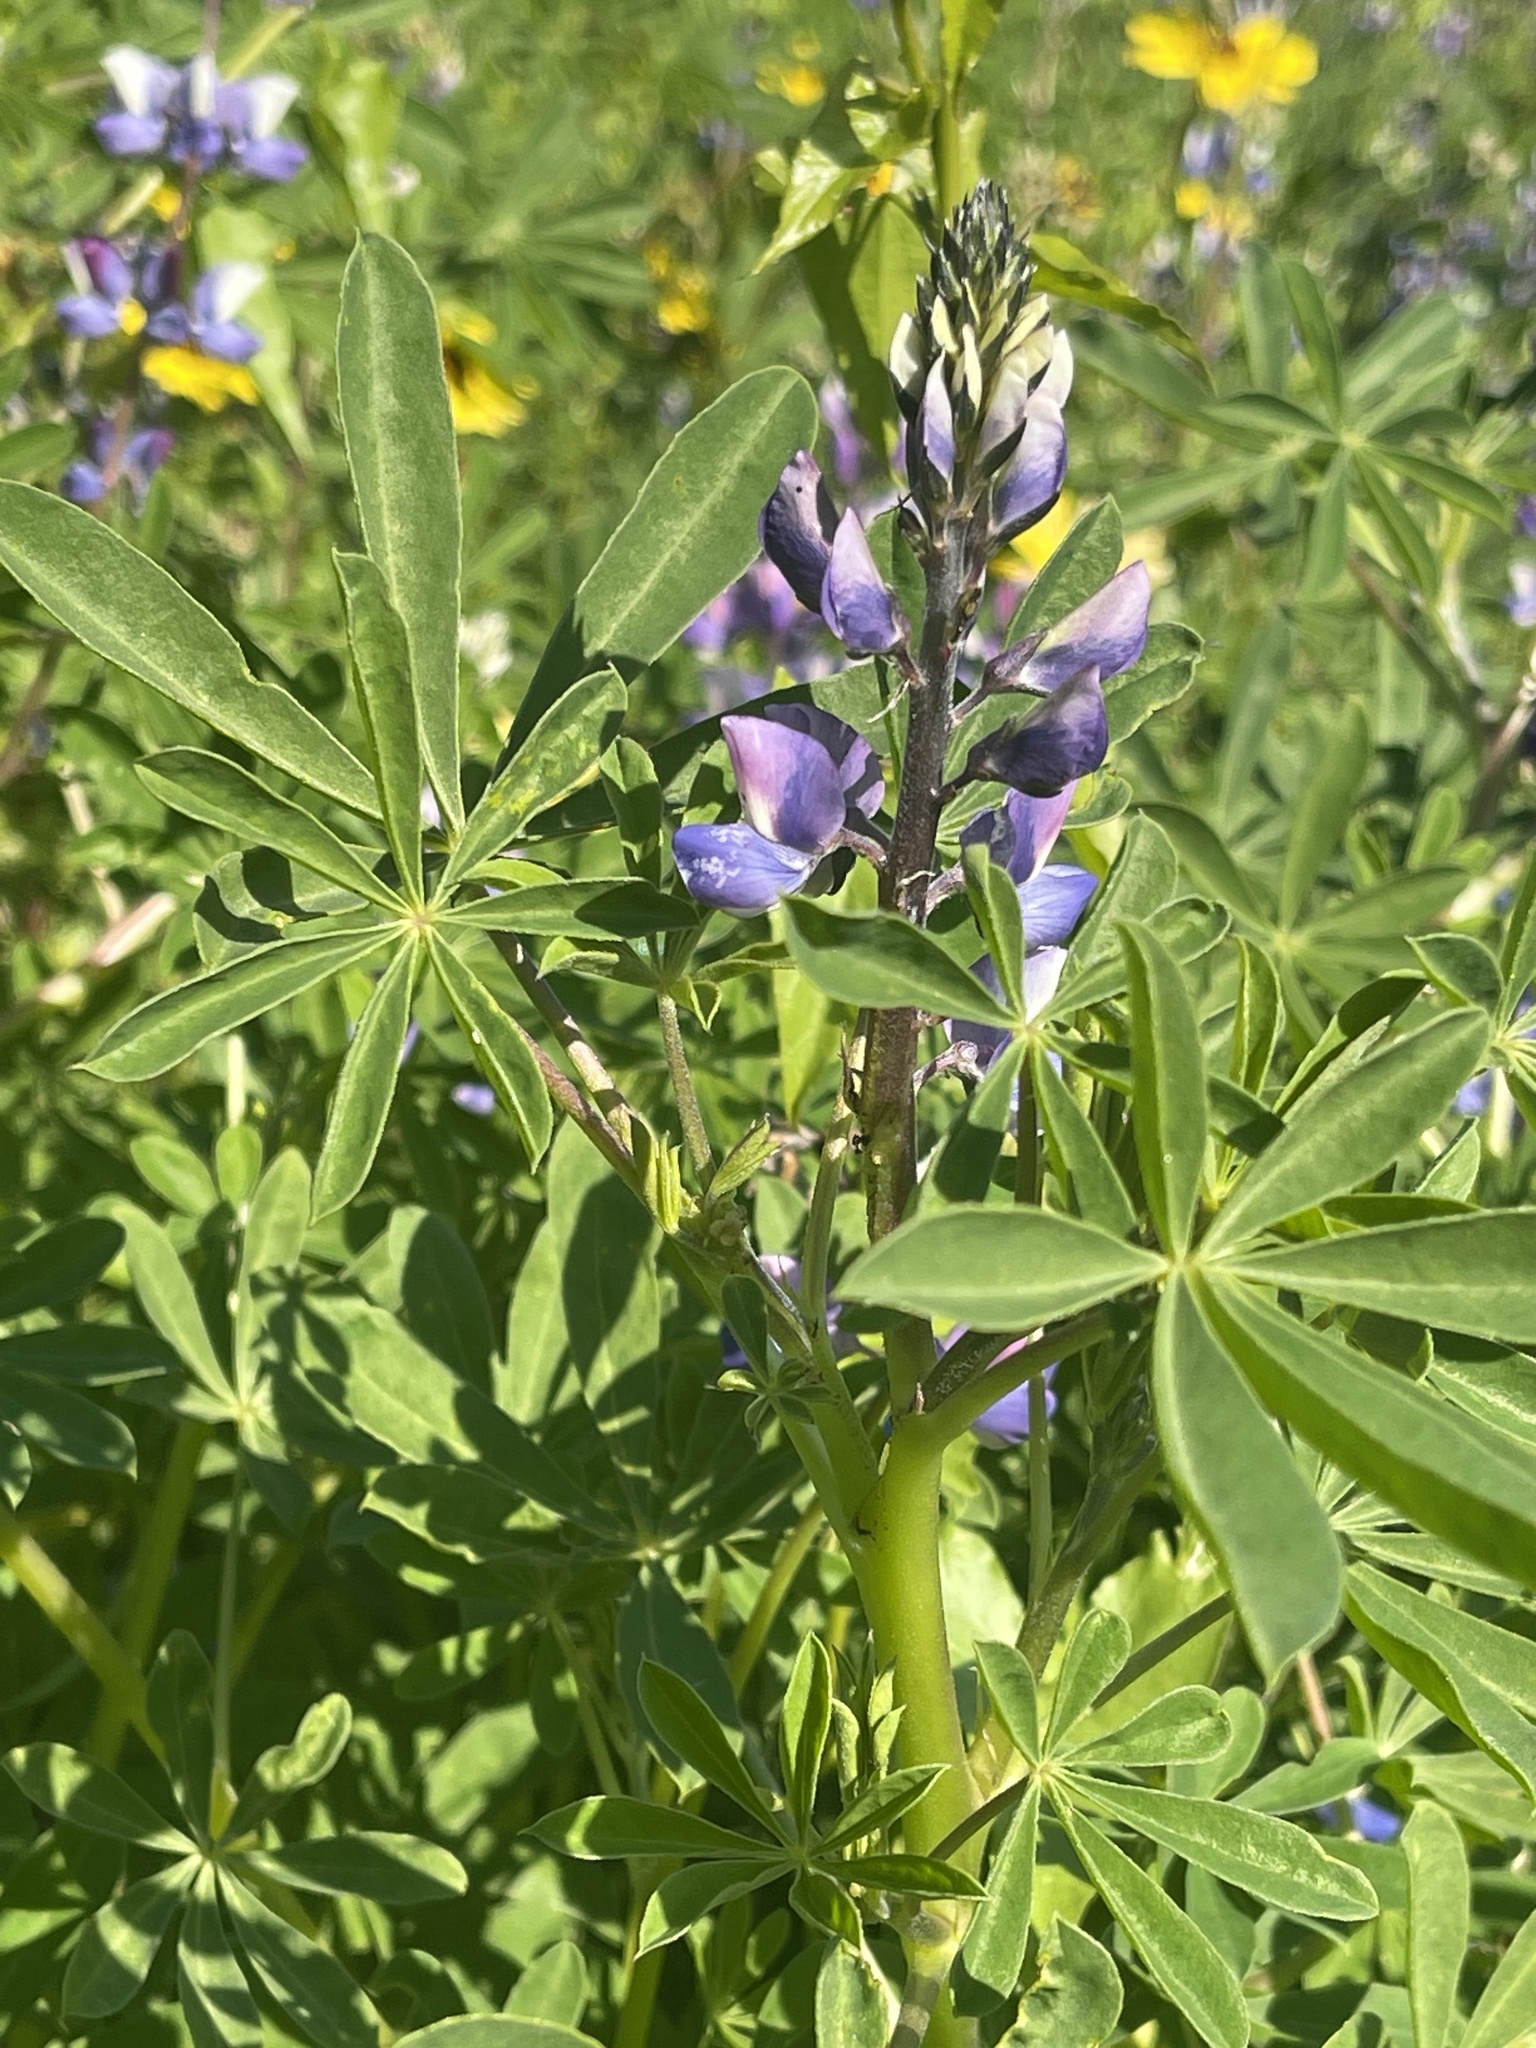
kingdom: Plantae
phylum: Tracheophyta
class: Magnoliopsida
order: Fabales
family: Fabaceae
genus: Lupinus
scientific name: Lupinus succulentus
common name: Arroyo lupine
